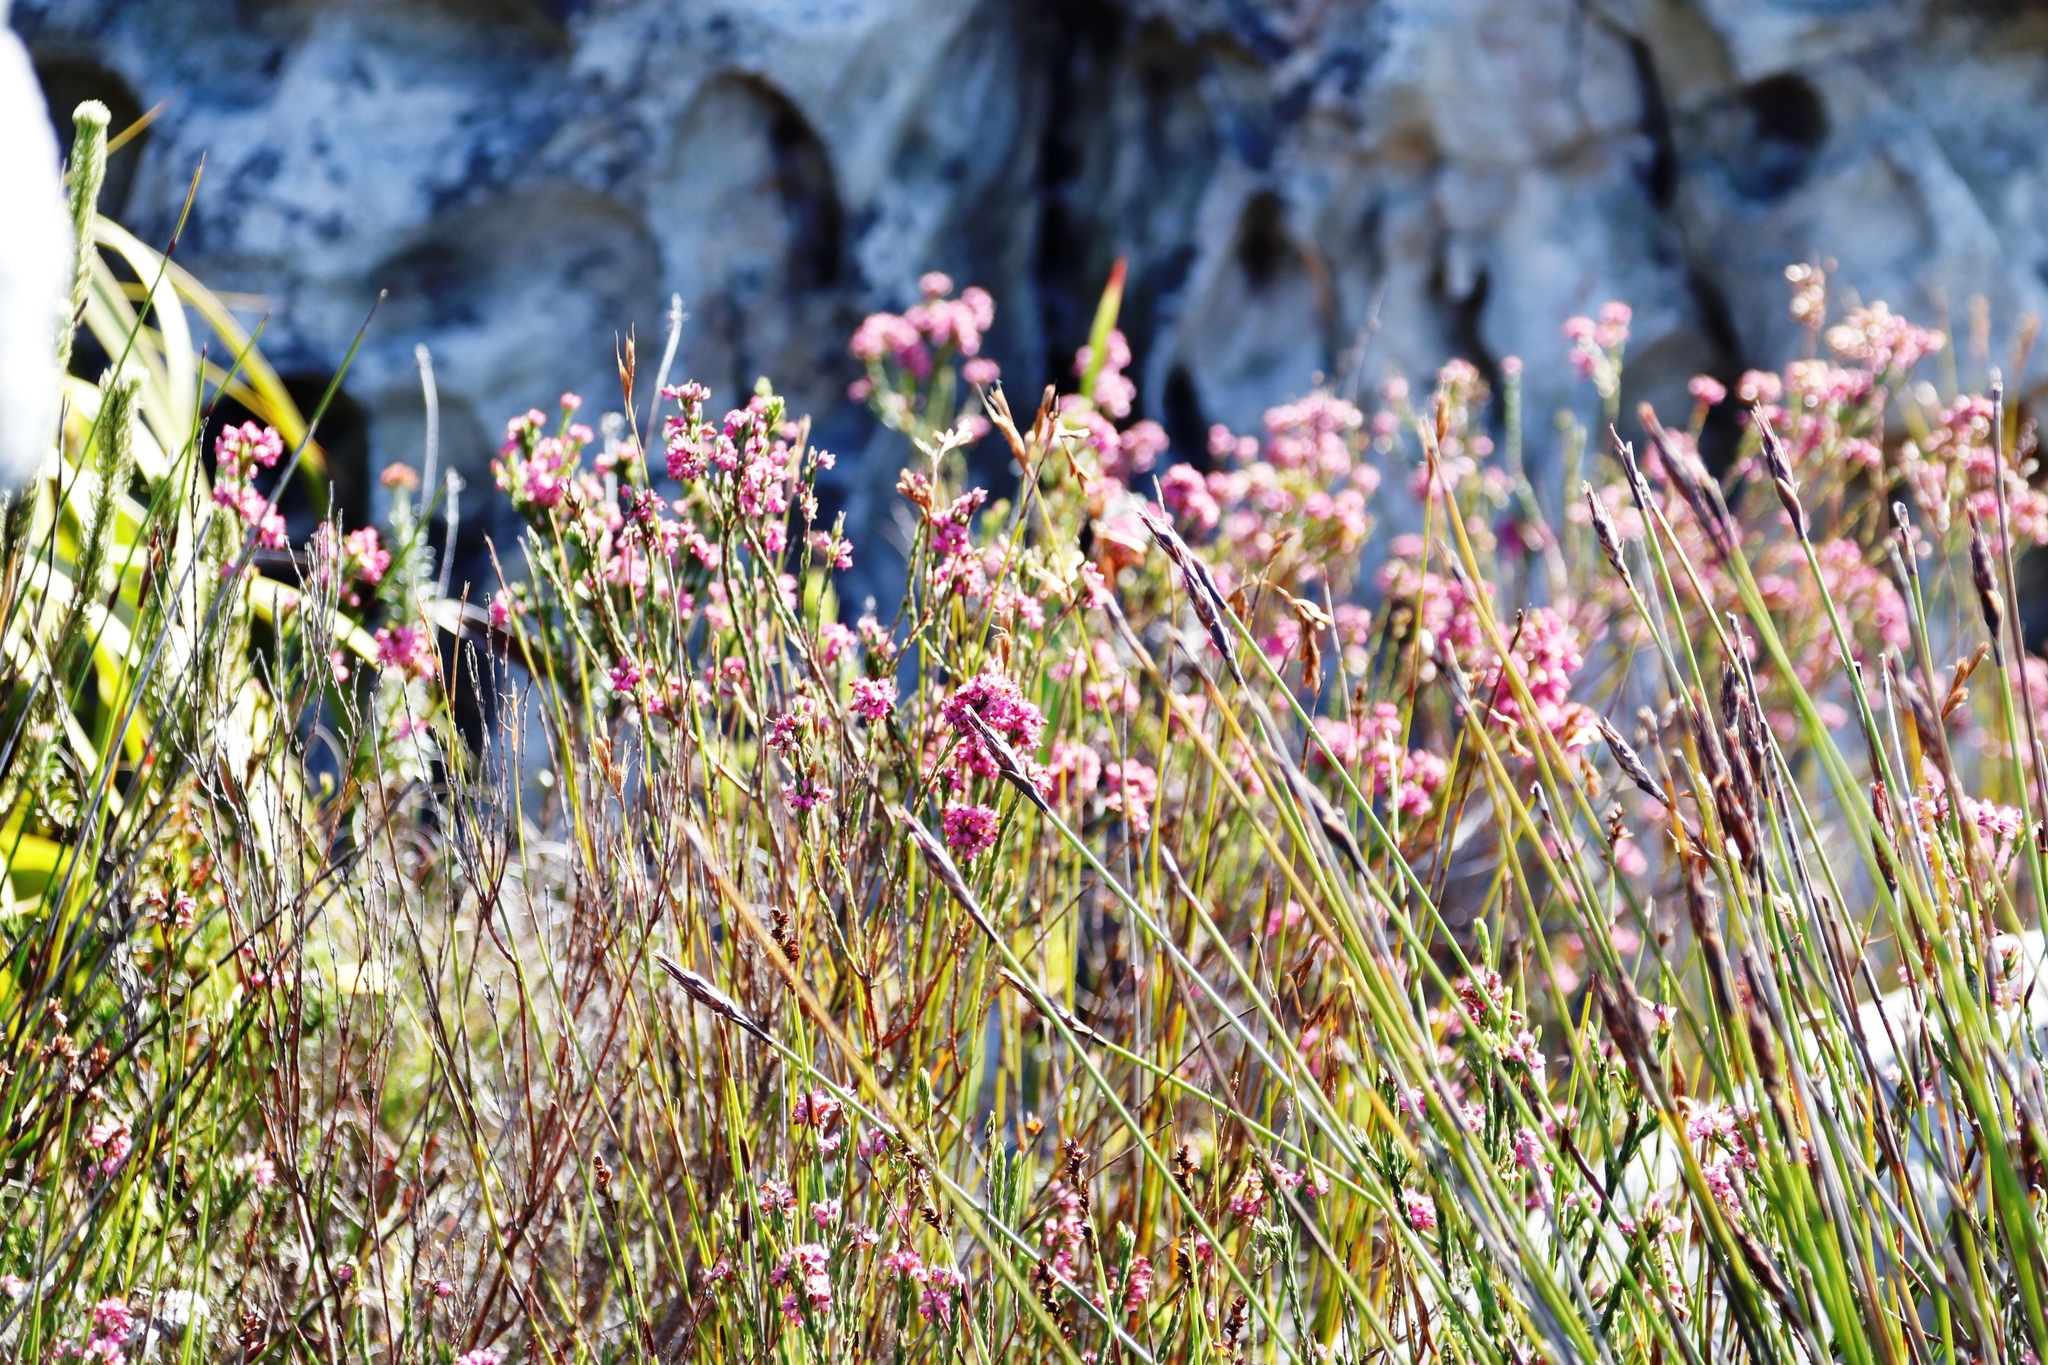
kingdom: Plantae
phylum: Tracheophyta
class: Magnoliopsida
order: Ericales
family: Ericaceae
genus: Erica
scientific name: Erica corifolia
